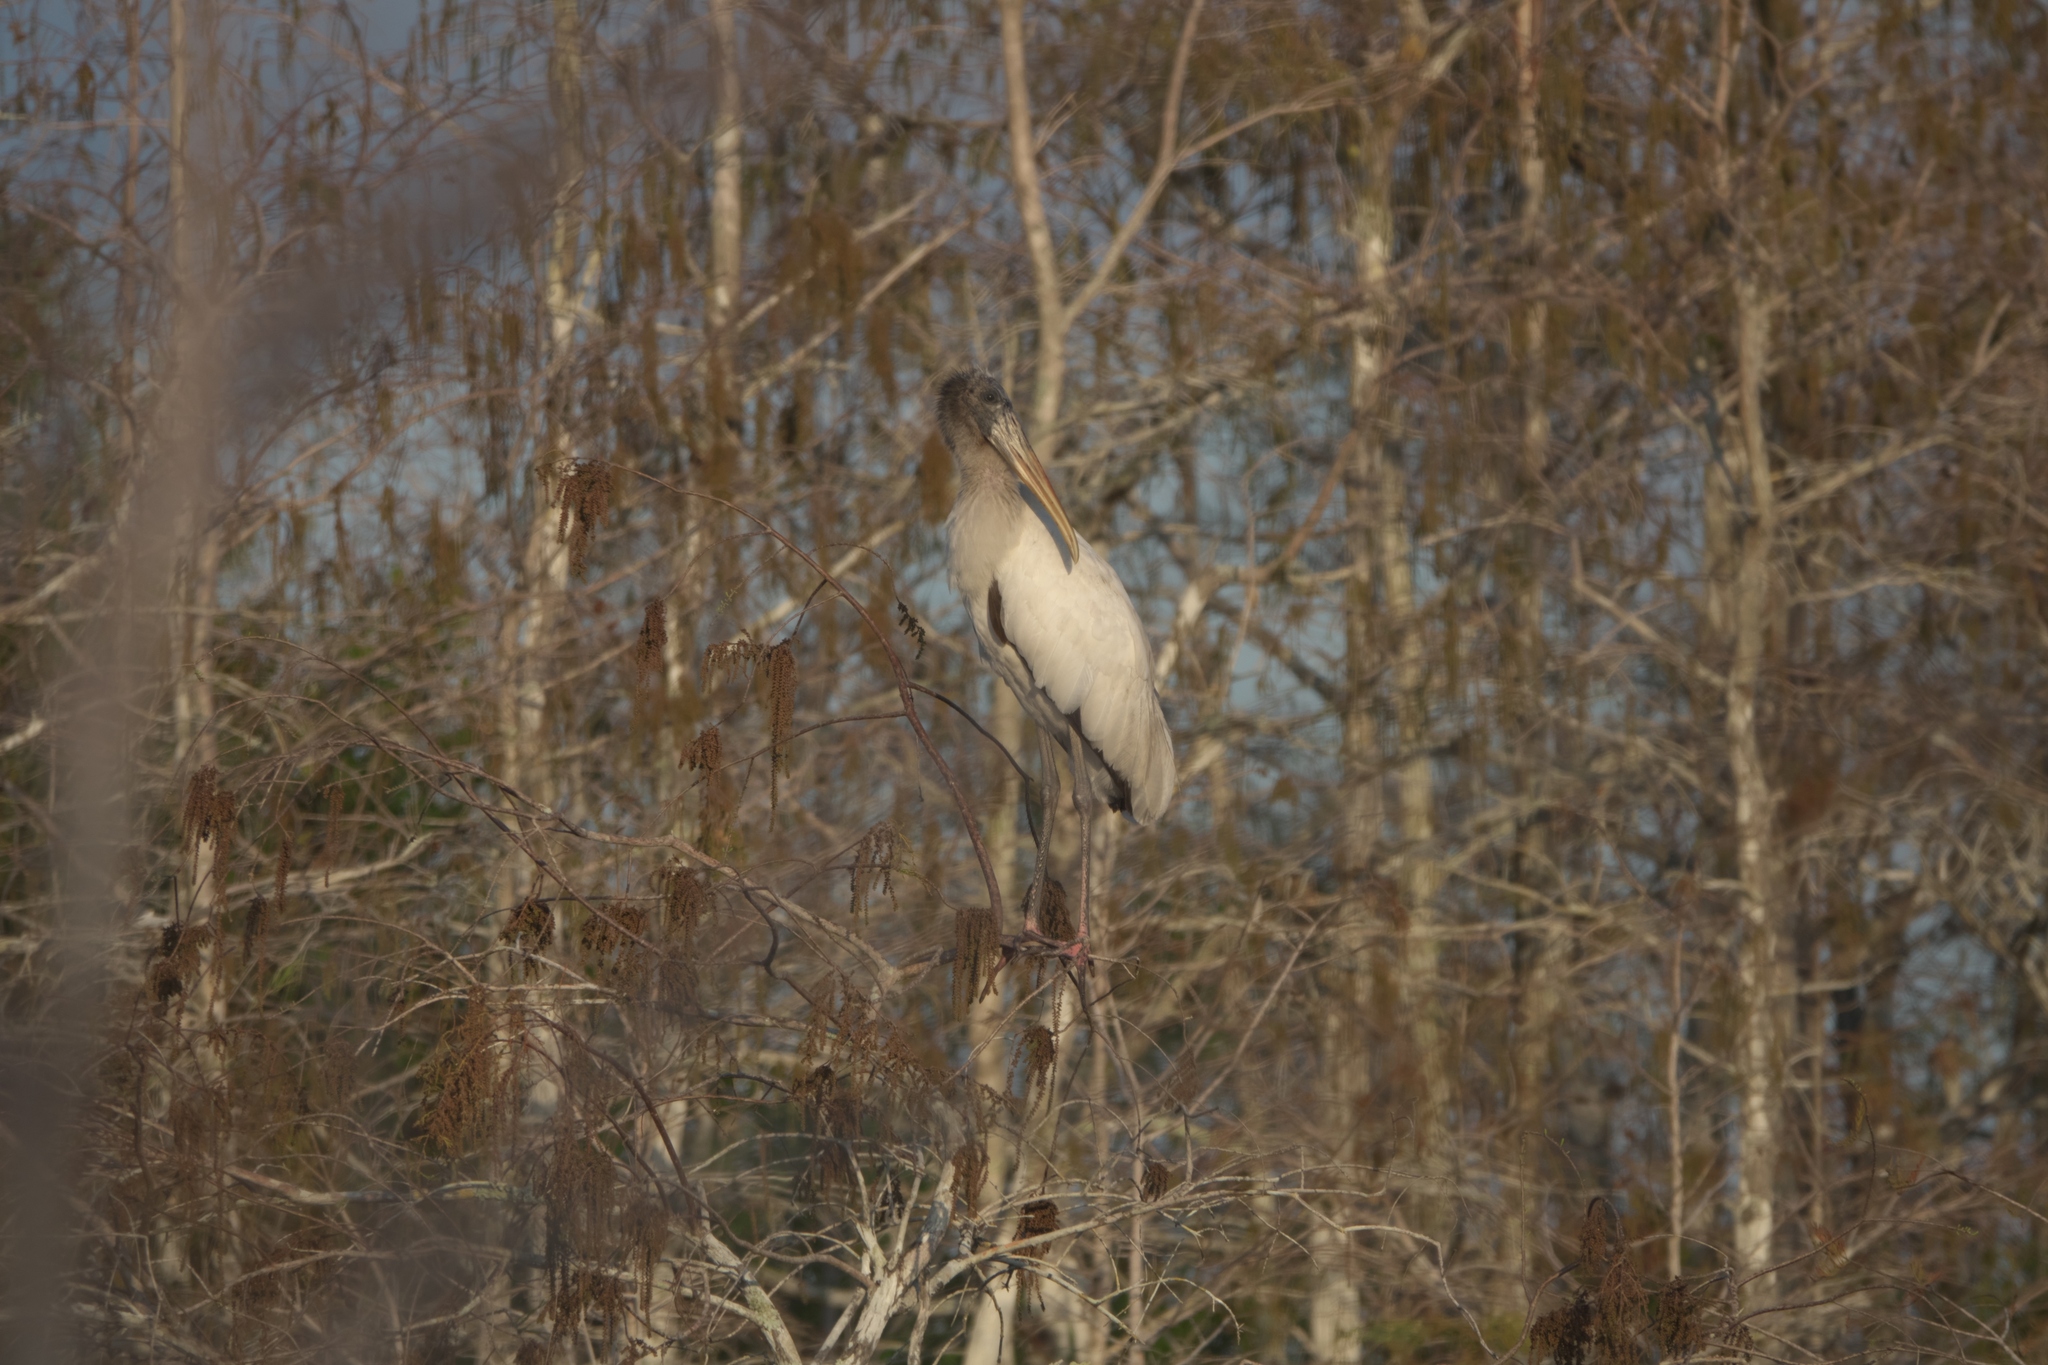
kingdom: Animalia
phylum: Chordata
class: Aves
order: Ciconiiformes
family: Ciconiidae
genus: Mycteria
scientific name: Mycteria americana
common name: Wood stork
